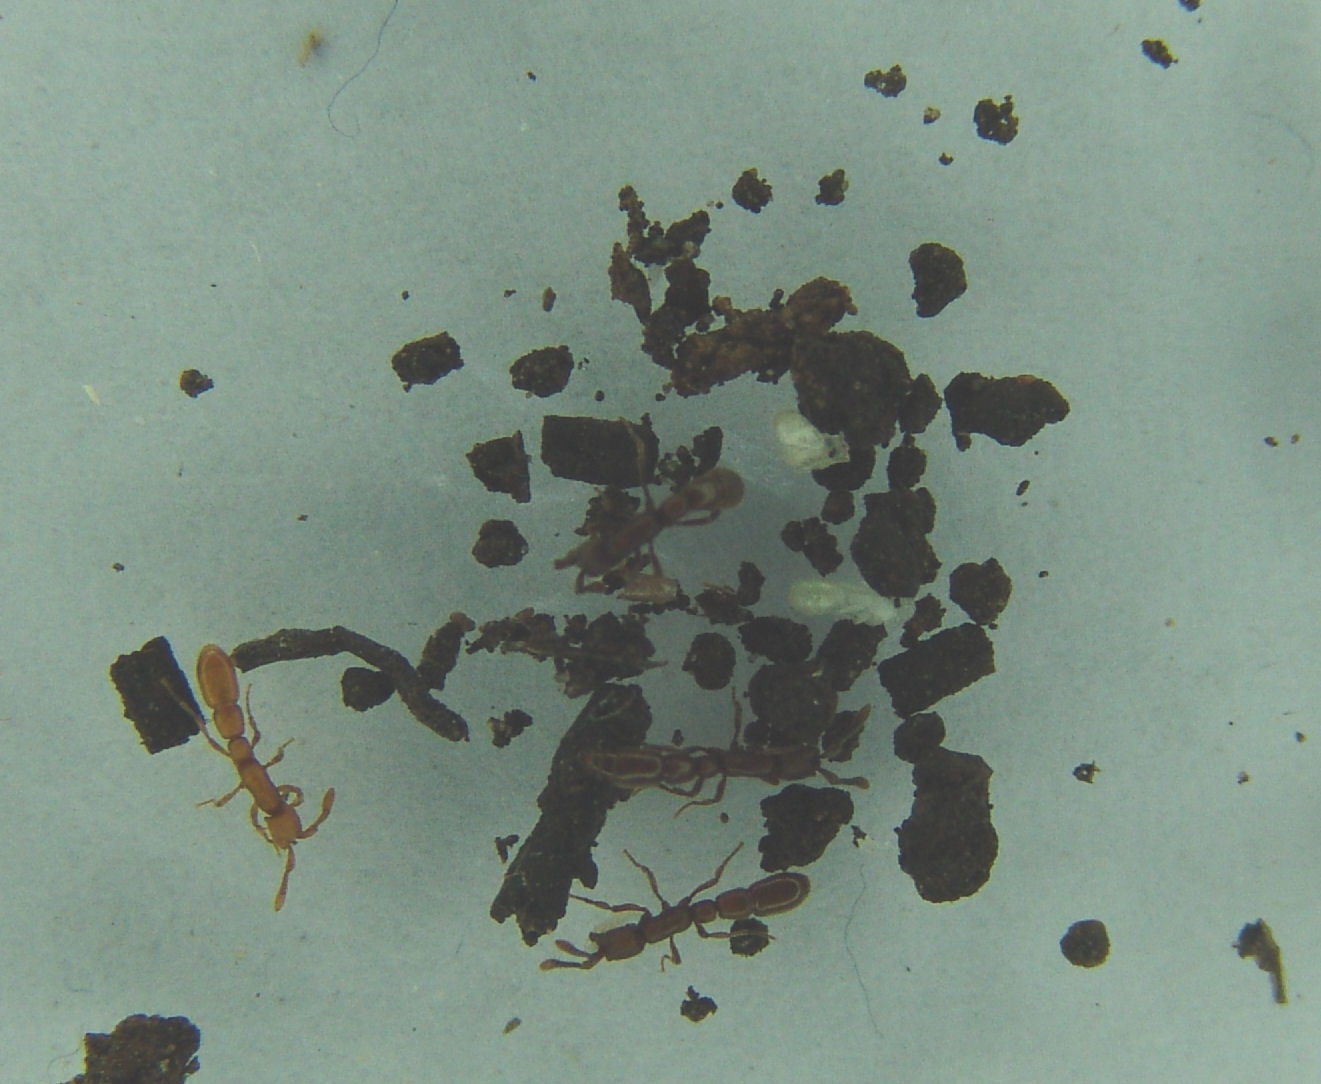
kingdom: Animalia
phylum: Arthropoda
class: Insecta
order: Hymenoptera
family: Formicidae
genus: Syscia
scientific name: Syscia madrensis
